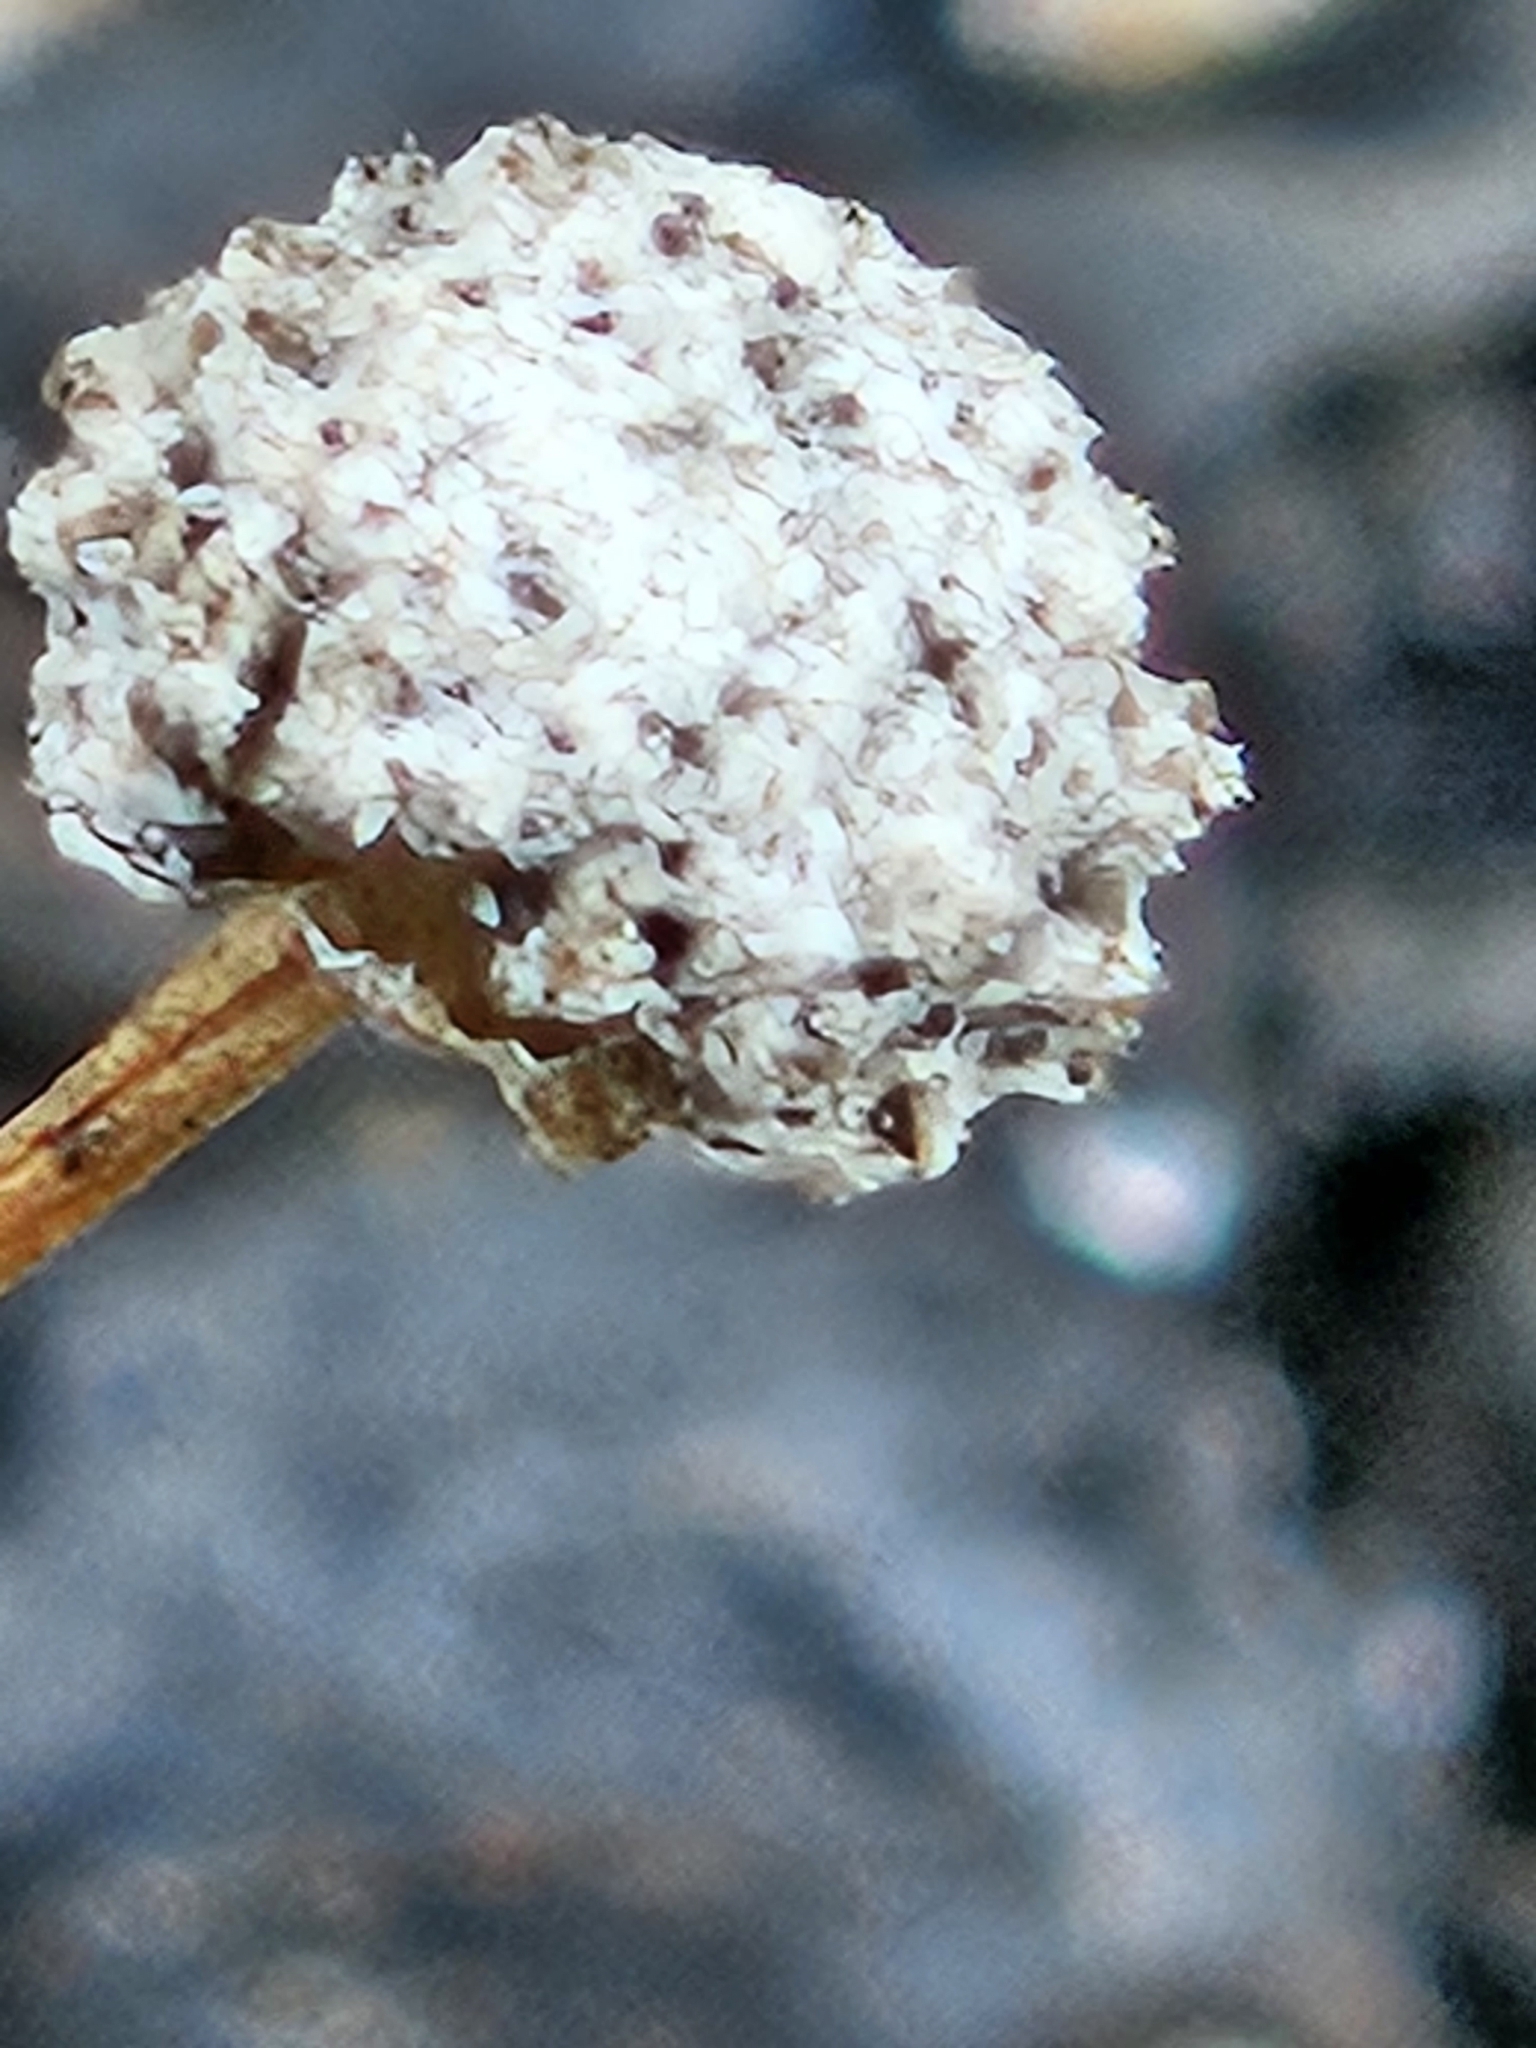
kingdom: Plantae
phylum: Tracheophyta
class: Liliopsida
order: Poales
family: Eriocaulaceae
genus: Eriocaulon
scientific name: Eriocaulon aquaticum
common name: Pipewort
